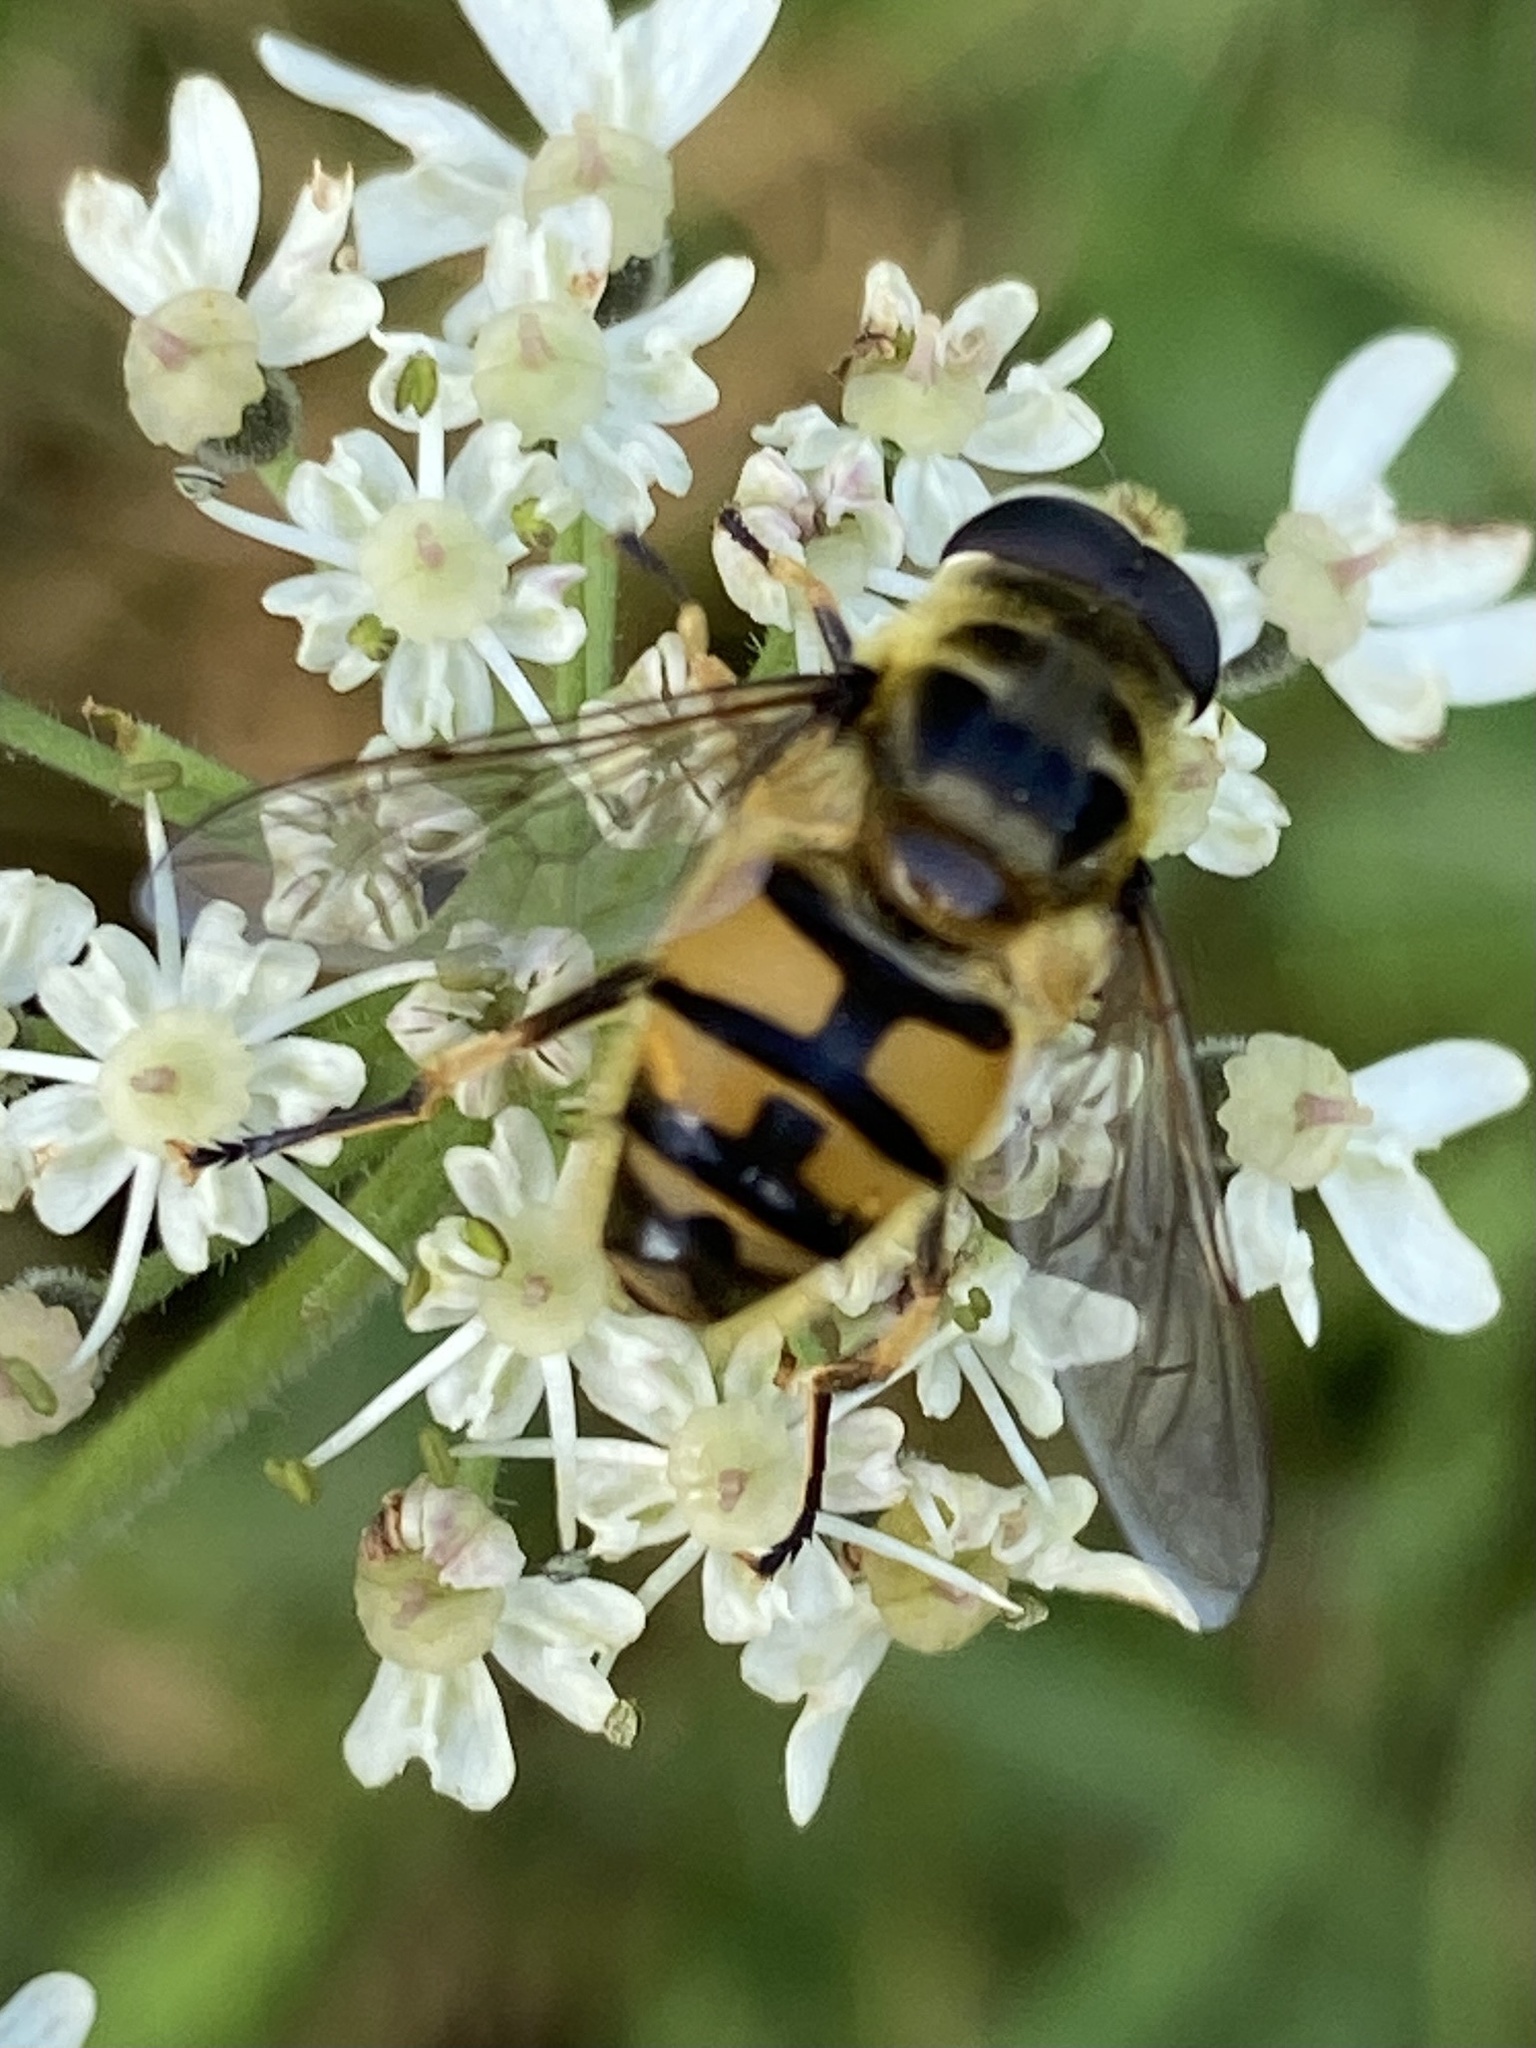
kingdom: Animalia
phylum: Arthropoda
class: Insecta
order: Diptera
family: Syrphidae
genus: Myathropa
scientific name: Myathropa florea
